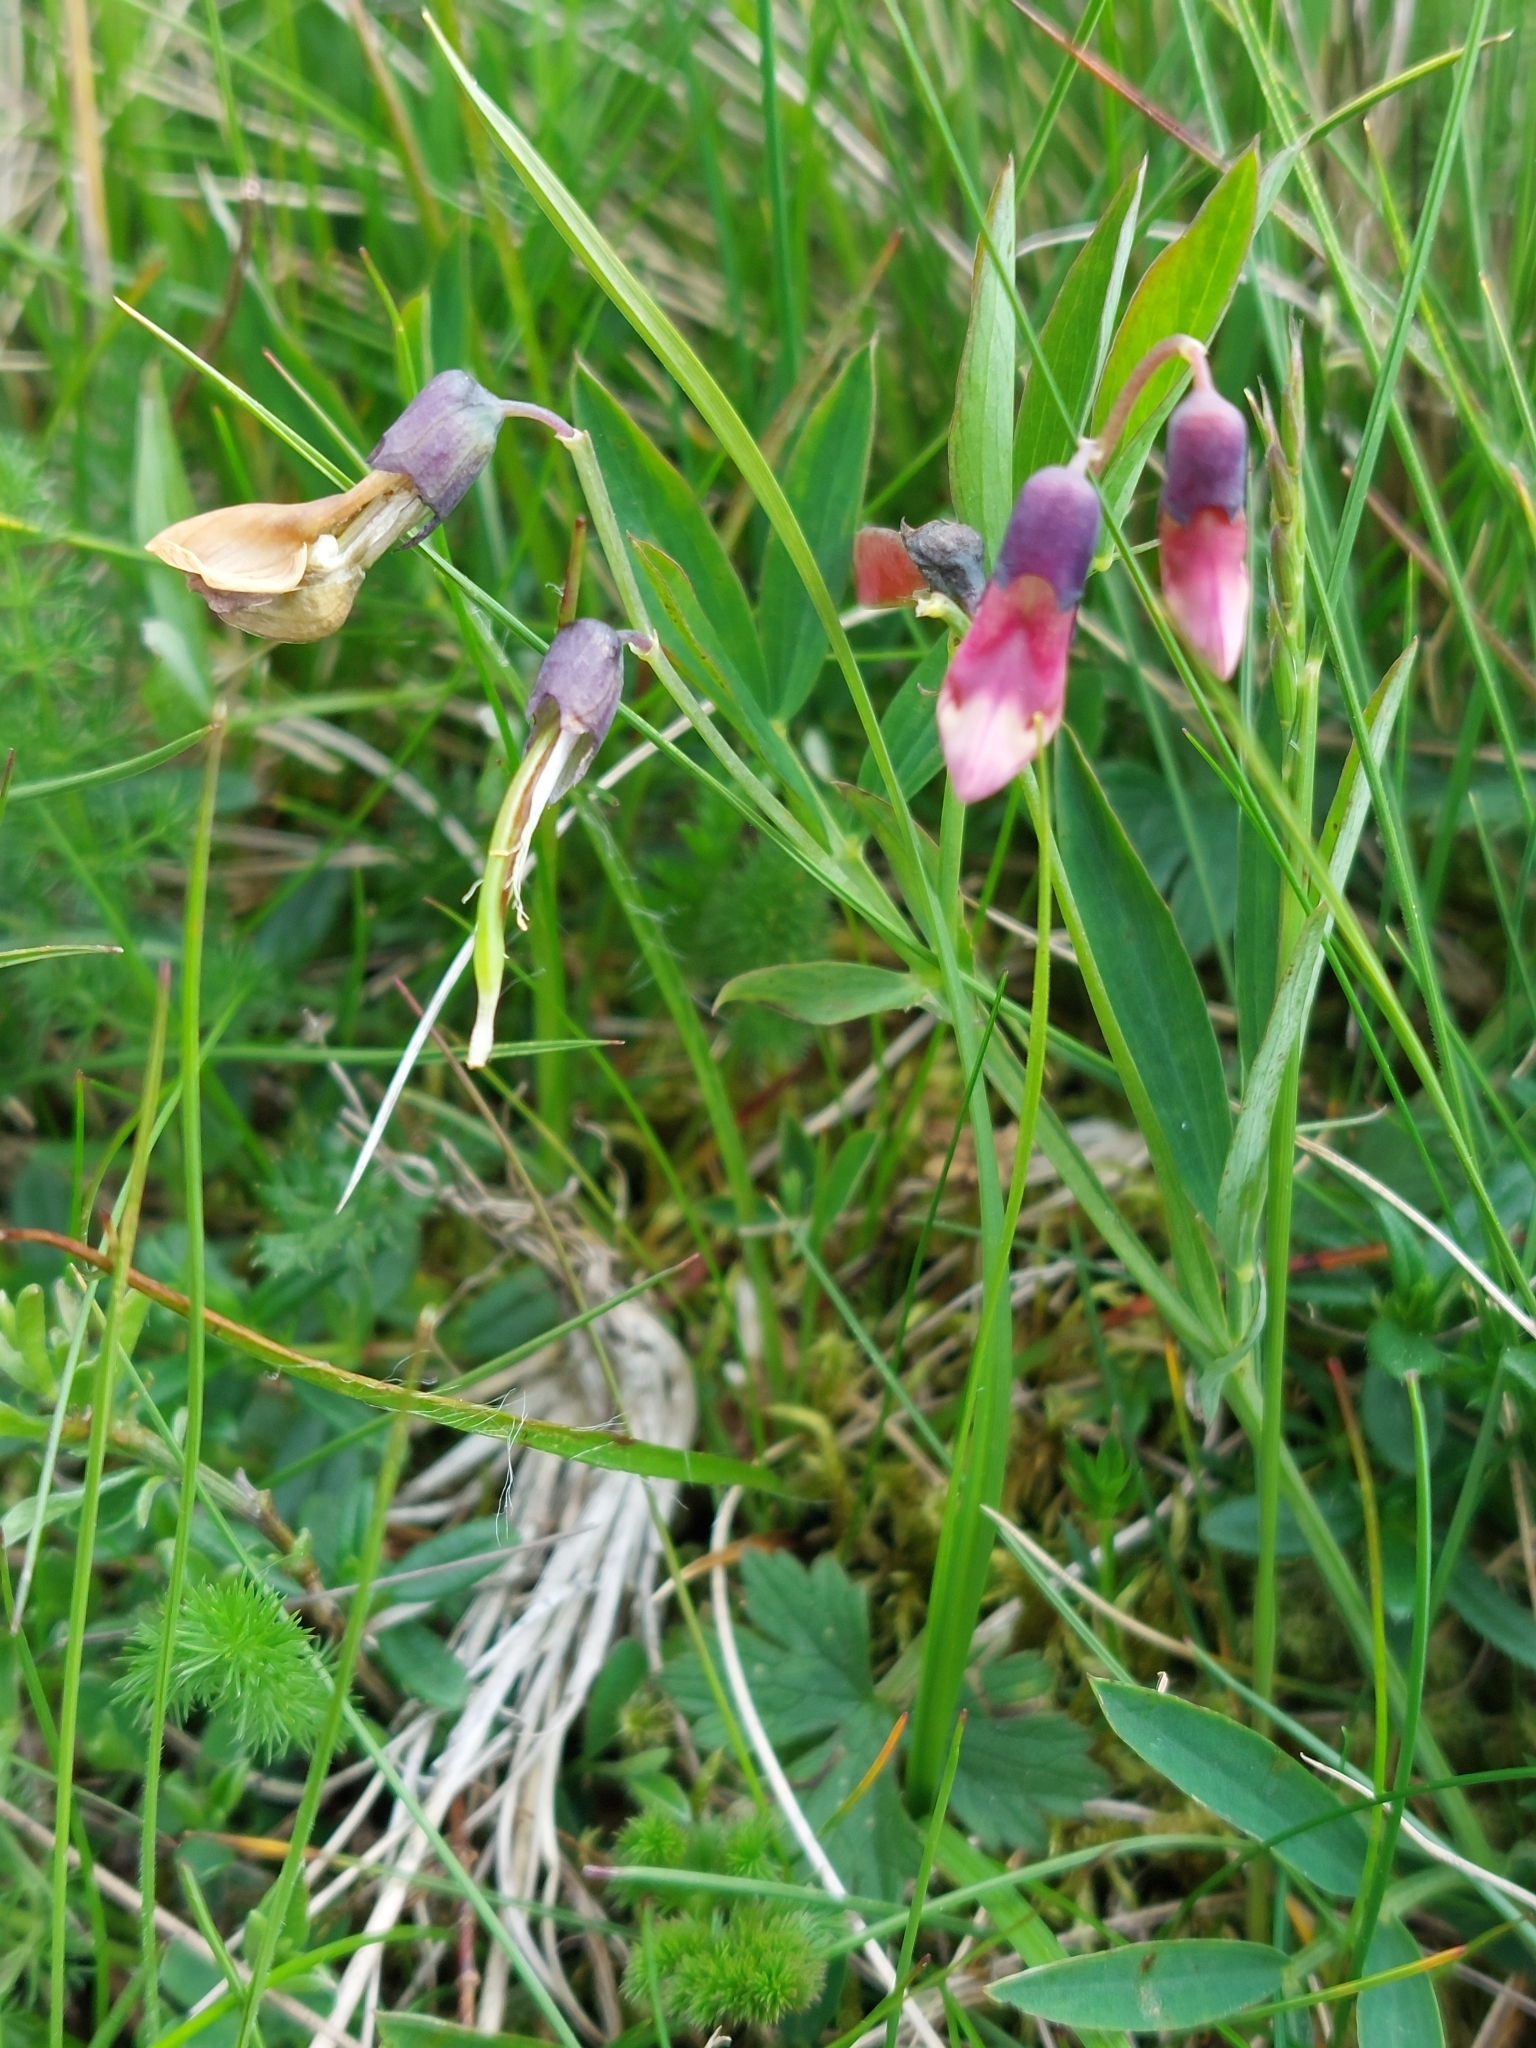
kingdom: Plantae
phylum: Tracheophyta
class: Magnoliopsida
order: Fabales
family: Fabaceae
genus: Lathyrus
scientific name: Lathyrus linifolius
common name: Bitter-vetch
